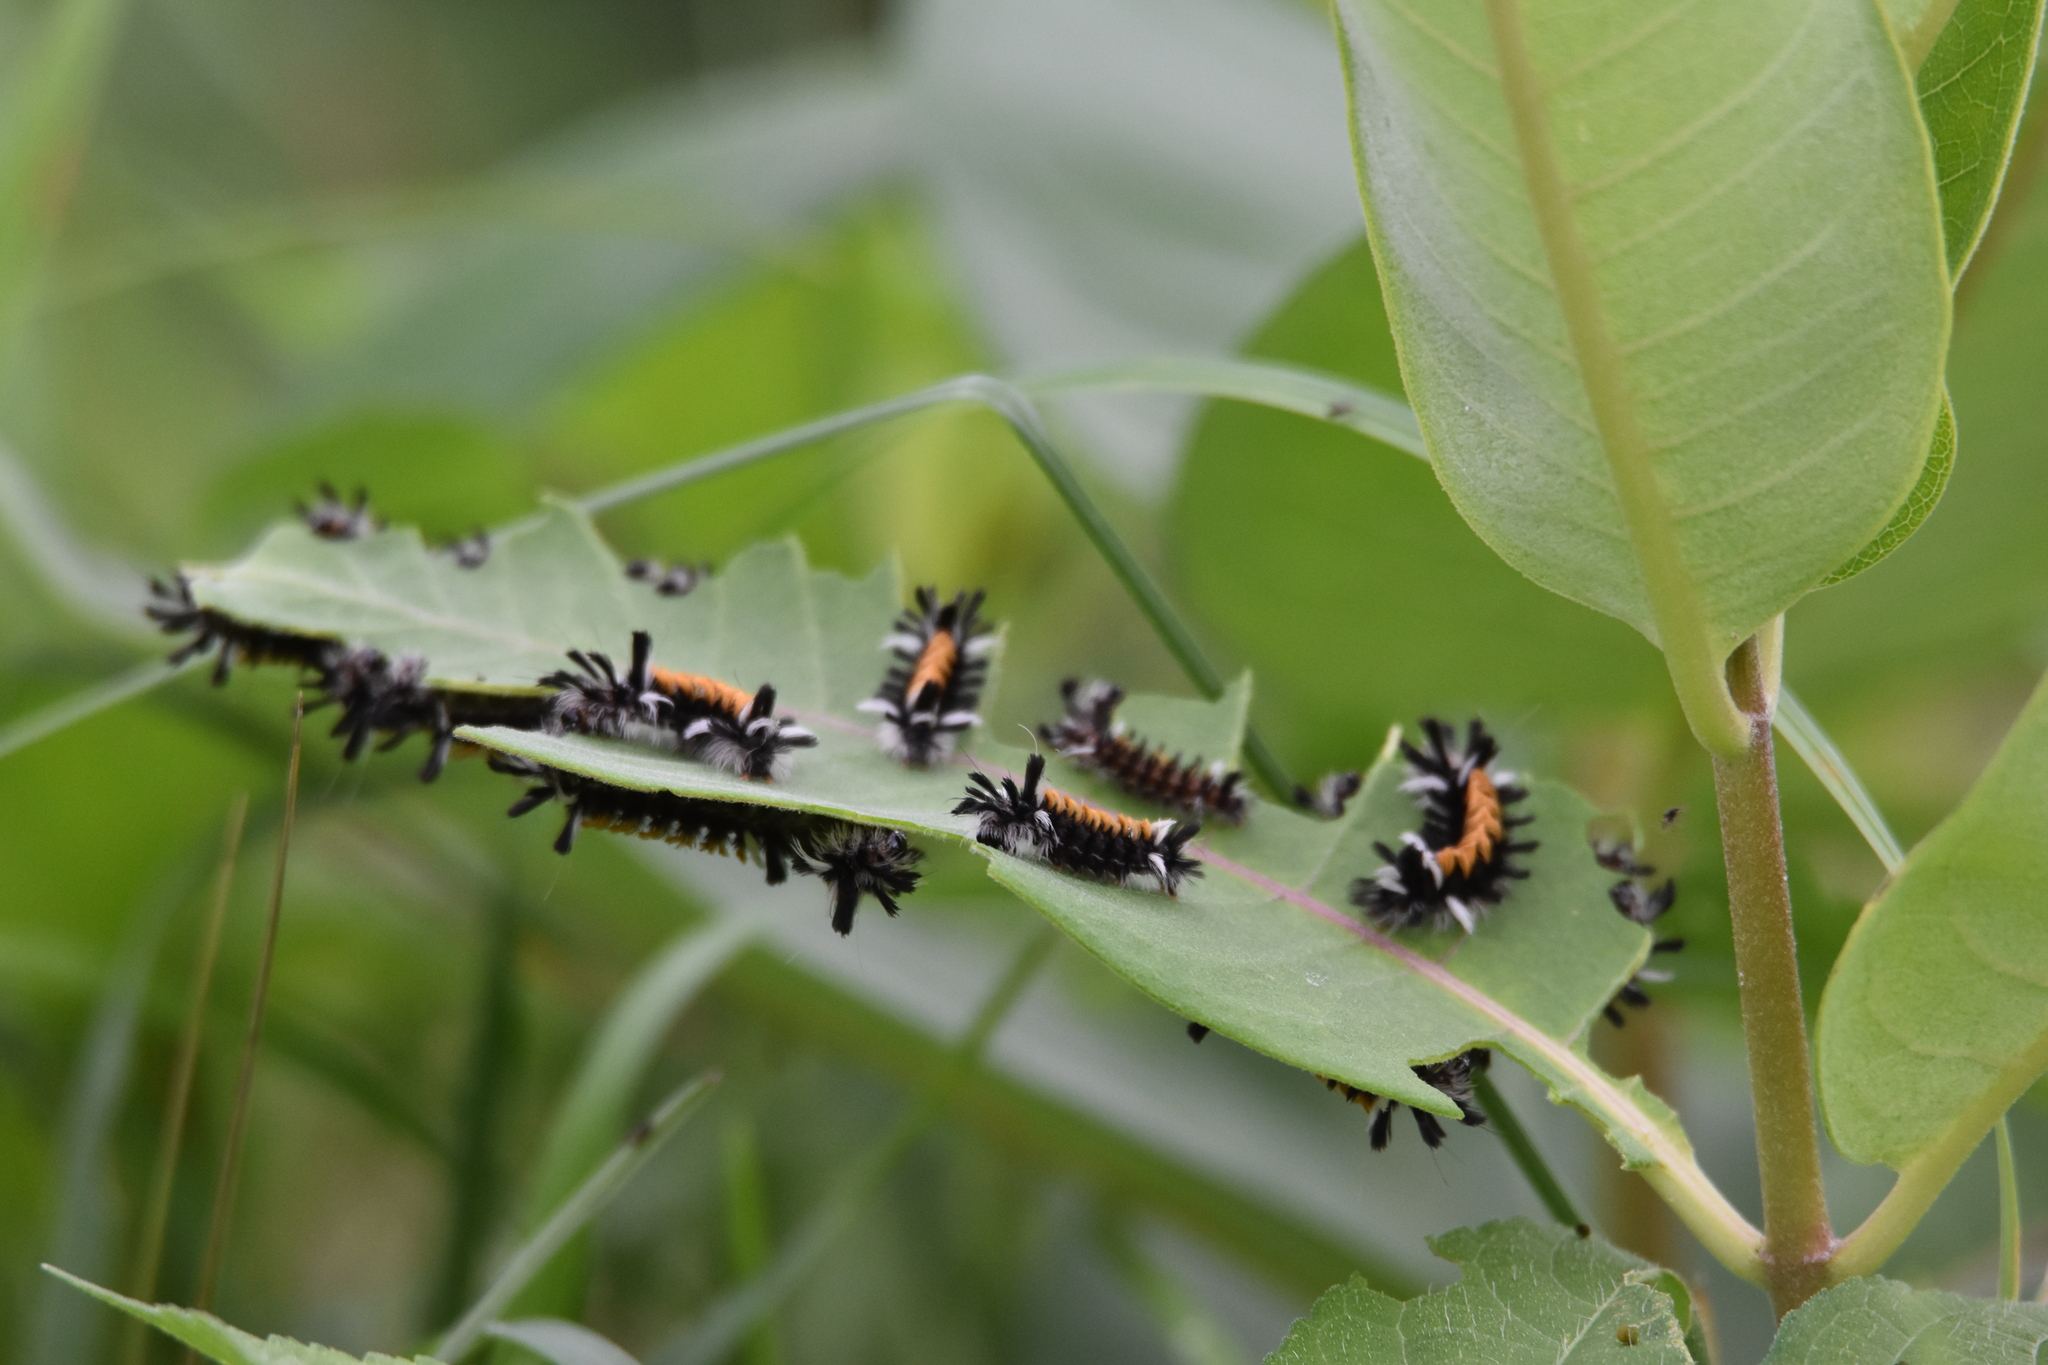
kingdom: Animalia
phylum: Arthropoda
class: Insecta
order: Lepidoptera
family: Erebidae
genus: Euchaetes
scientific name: Euchaetes egle
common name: Milkweed tussock moth
